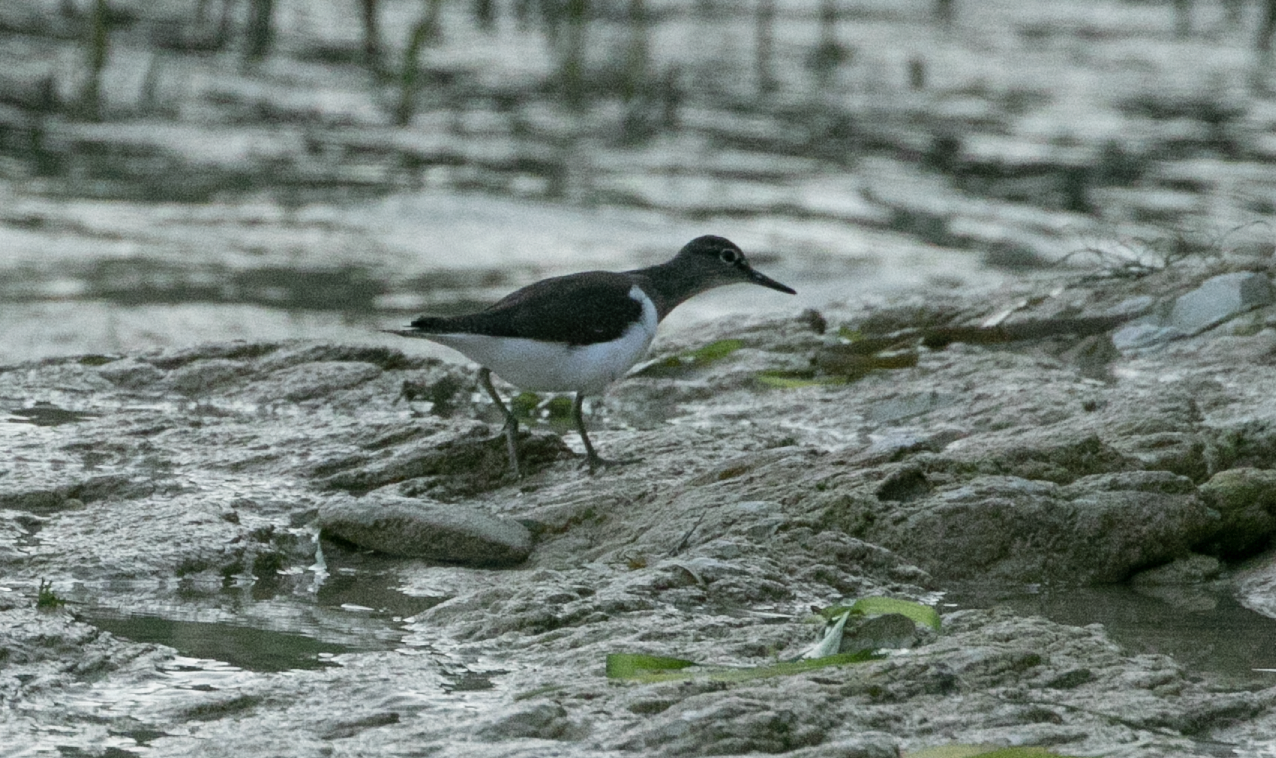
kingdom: Animalia
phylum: Chordata
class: Aves
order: Charadriiformes
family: Scolopacidae
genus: Actitis
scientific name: Actitis hypoleucos
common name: Common sandpiper
